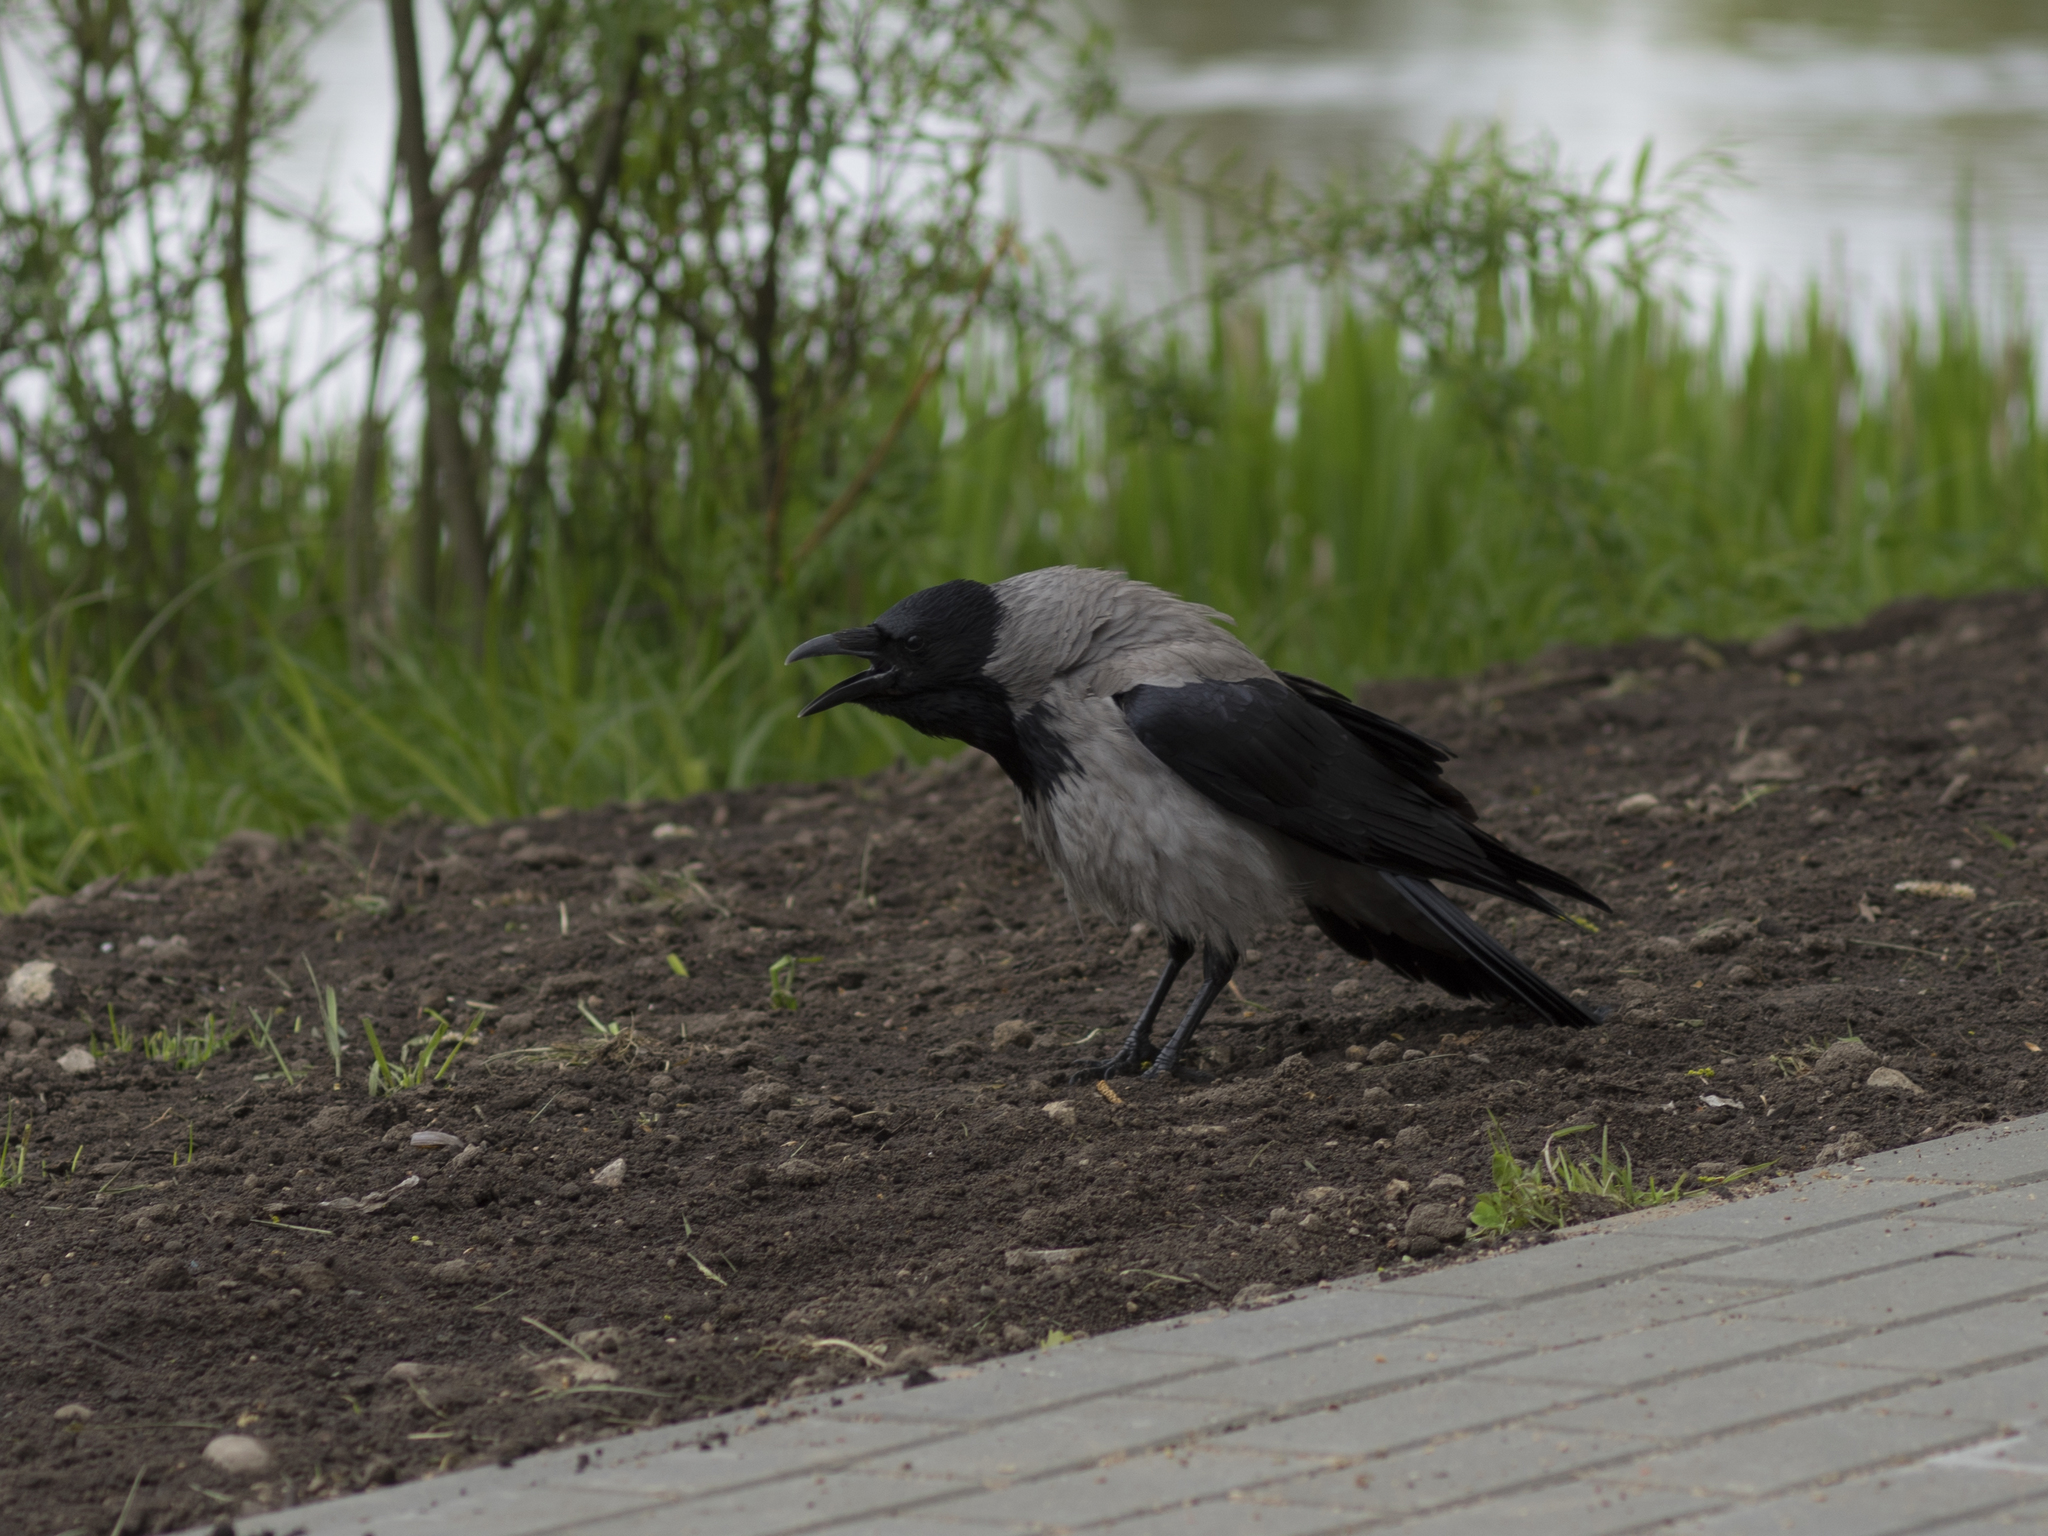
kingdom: Animalia
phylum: Chordata
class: Aves
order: Passeriformes
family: Corvidae
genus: Corvus
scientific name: Corvus cornix
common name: Hooded crow
